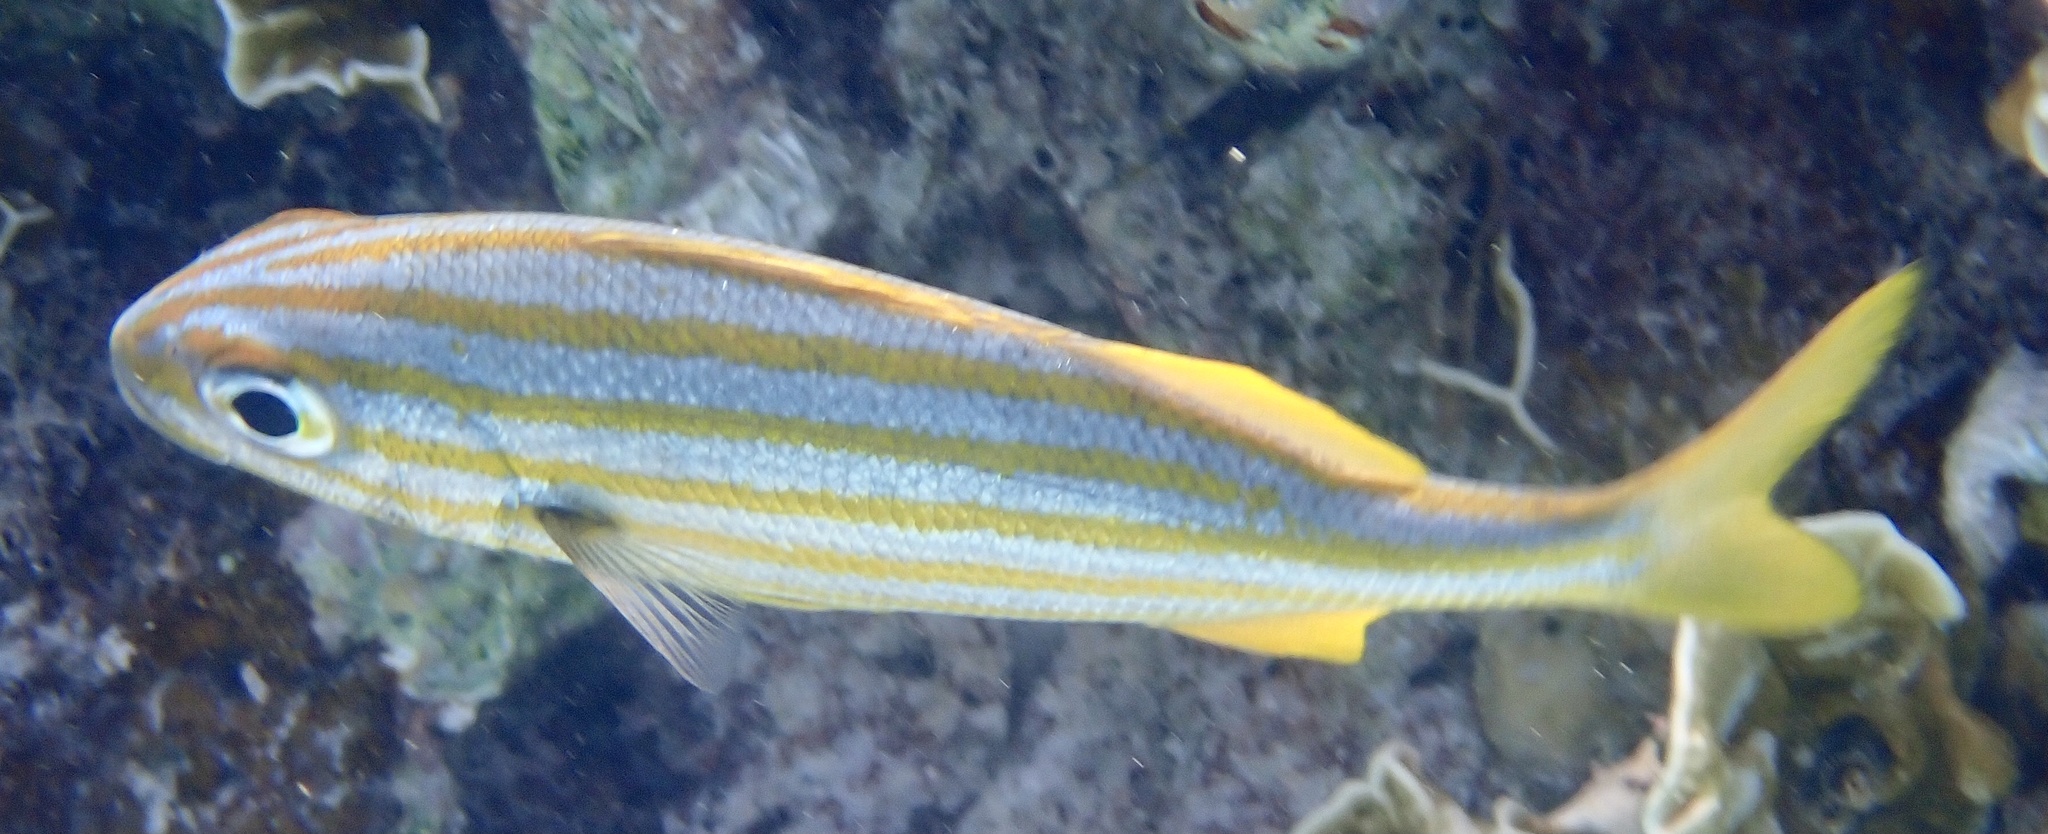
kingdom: Animalia
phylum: Chordata
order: Perciformes
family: Haemulidae
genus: Haemulon
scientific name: Haemulon chrysargyreum
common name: Smallmouth grunt
